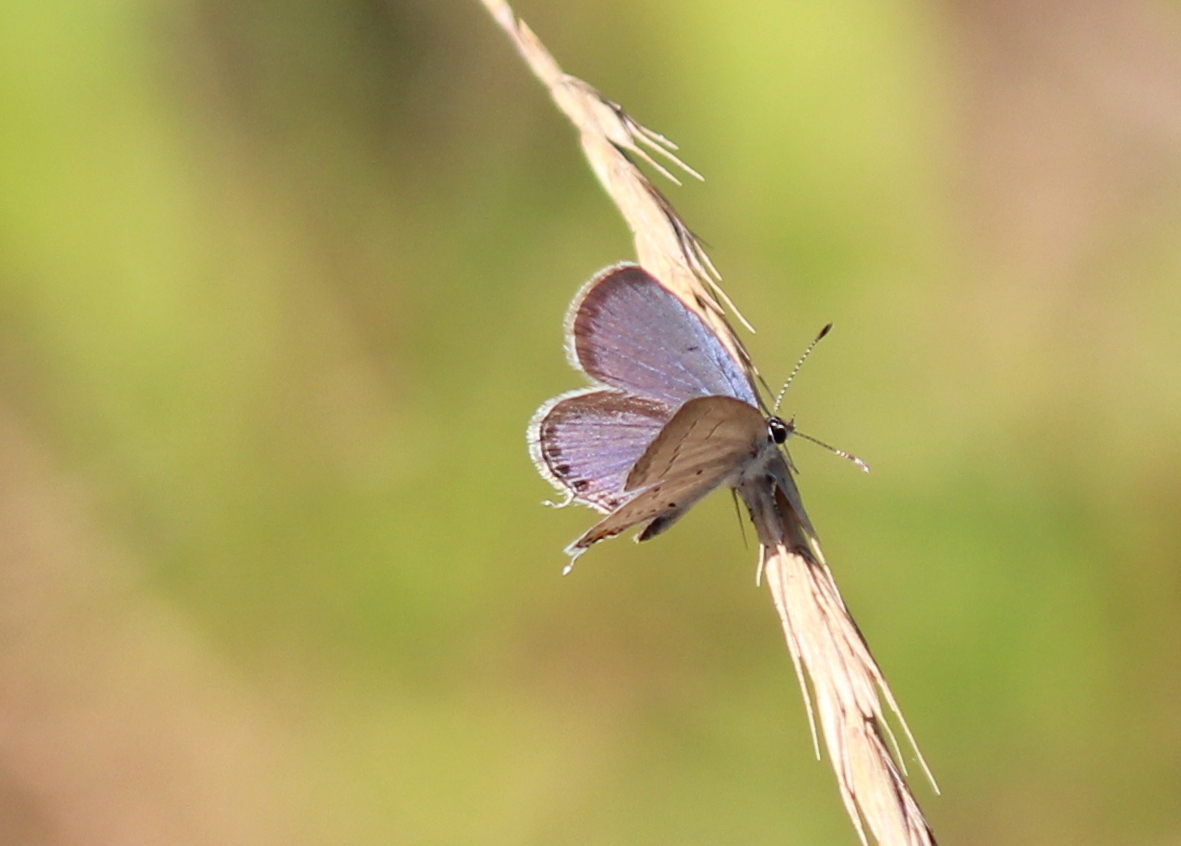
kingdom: Animalia
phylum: Arthropoda
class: Insecta
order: Lepidoptera
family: Lycaenidae
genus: Elkalyce
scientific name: Elkalyce comyntas
